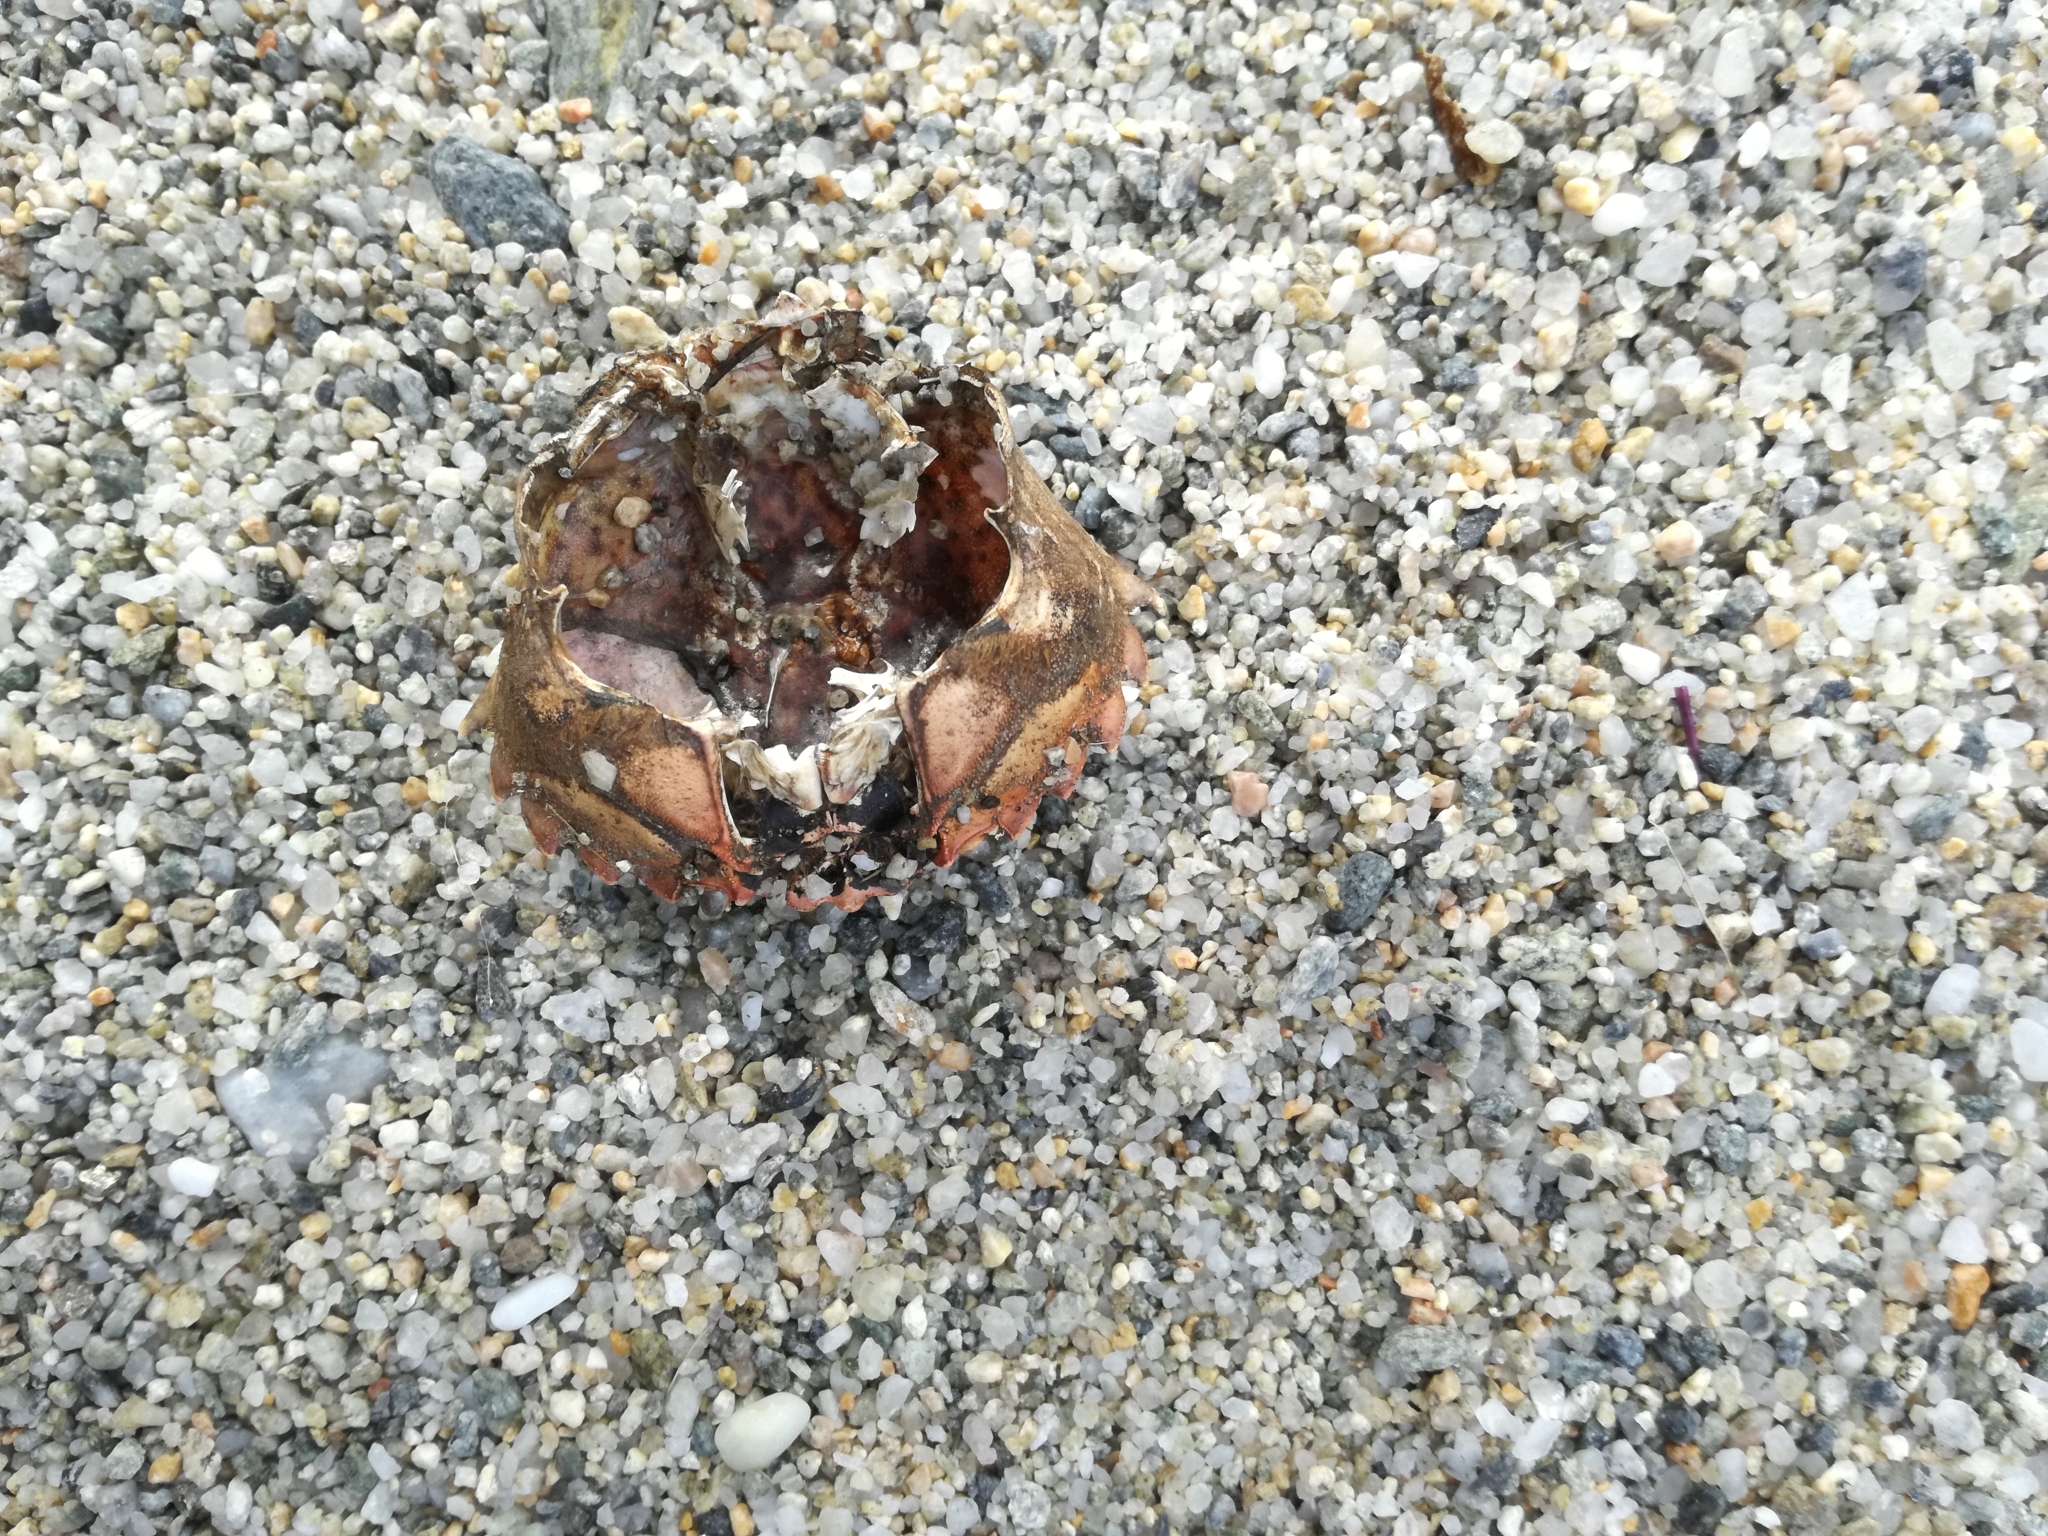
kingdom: Animalia
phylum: Arthropoda
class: Malacostraca
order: Decapoda
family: Carcinidae
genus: Carcinus
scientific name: Carcinus aestuarii
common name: Mediterranean green crab
